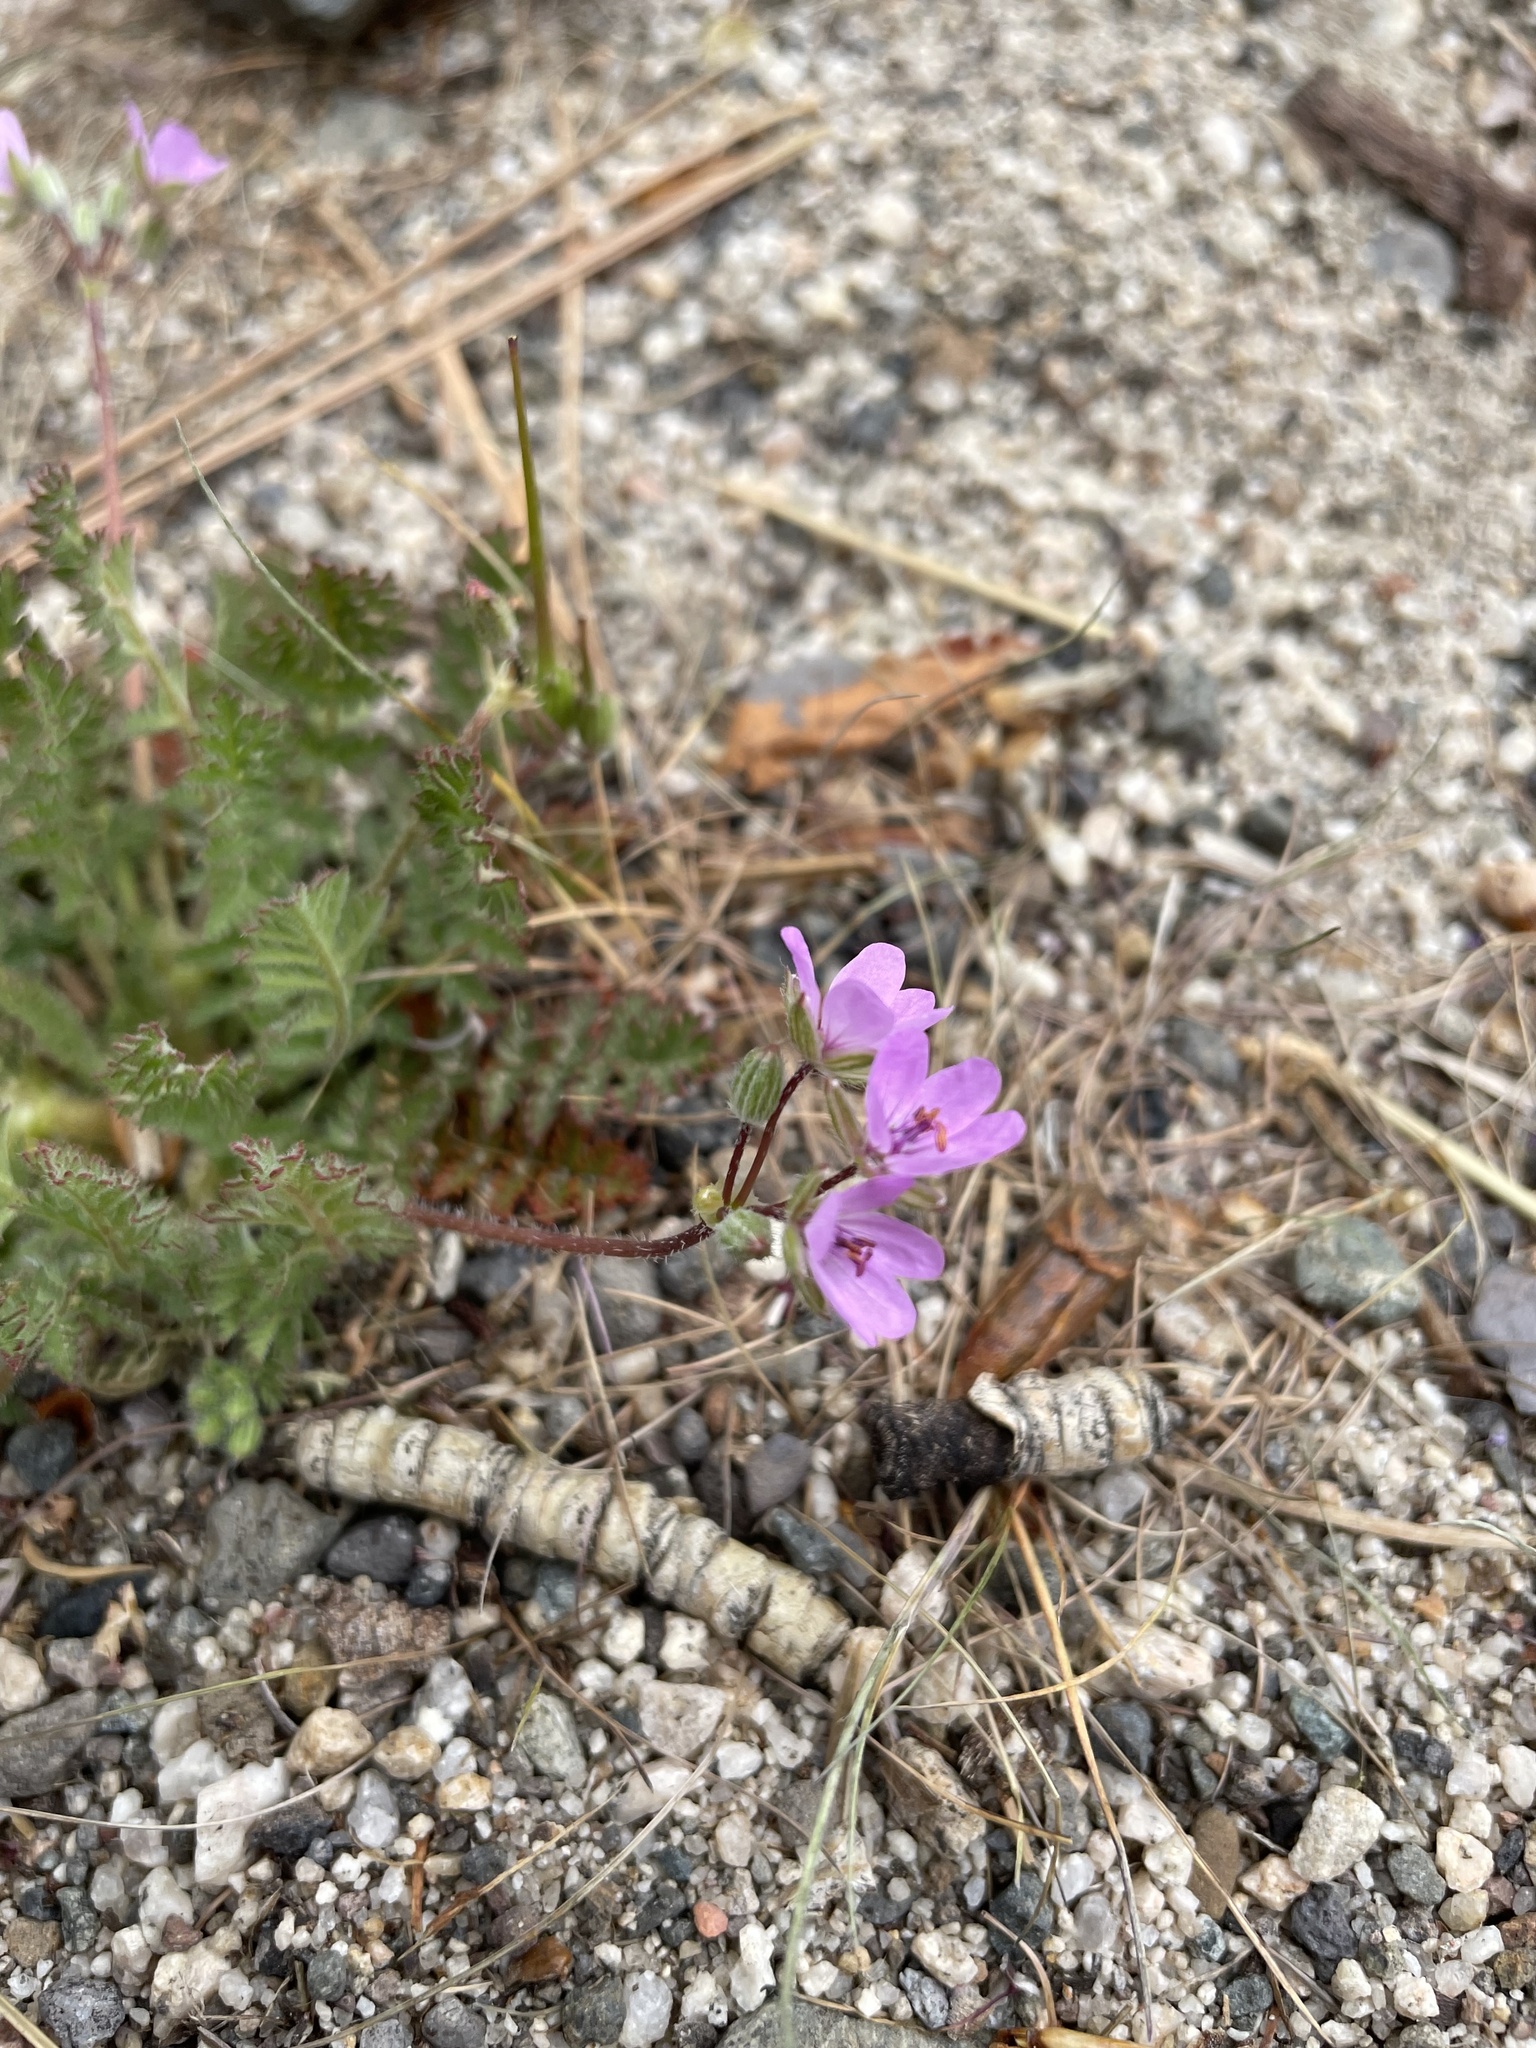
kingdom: Plantae
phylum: Tracheophyta
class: Magnoliopsida
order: Geraniales
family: Geraniaceae
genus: Erodium
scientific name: Erodium cicutarium
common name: Common stork's-bill
